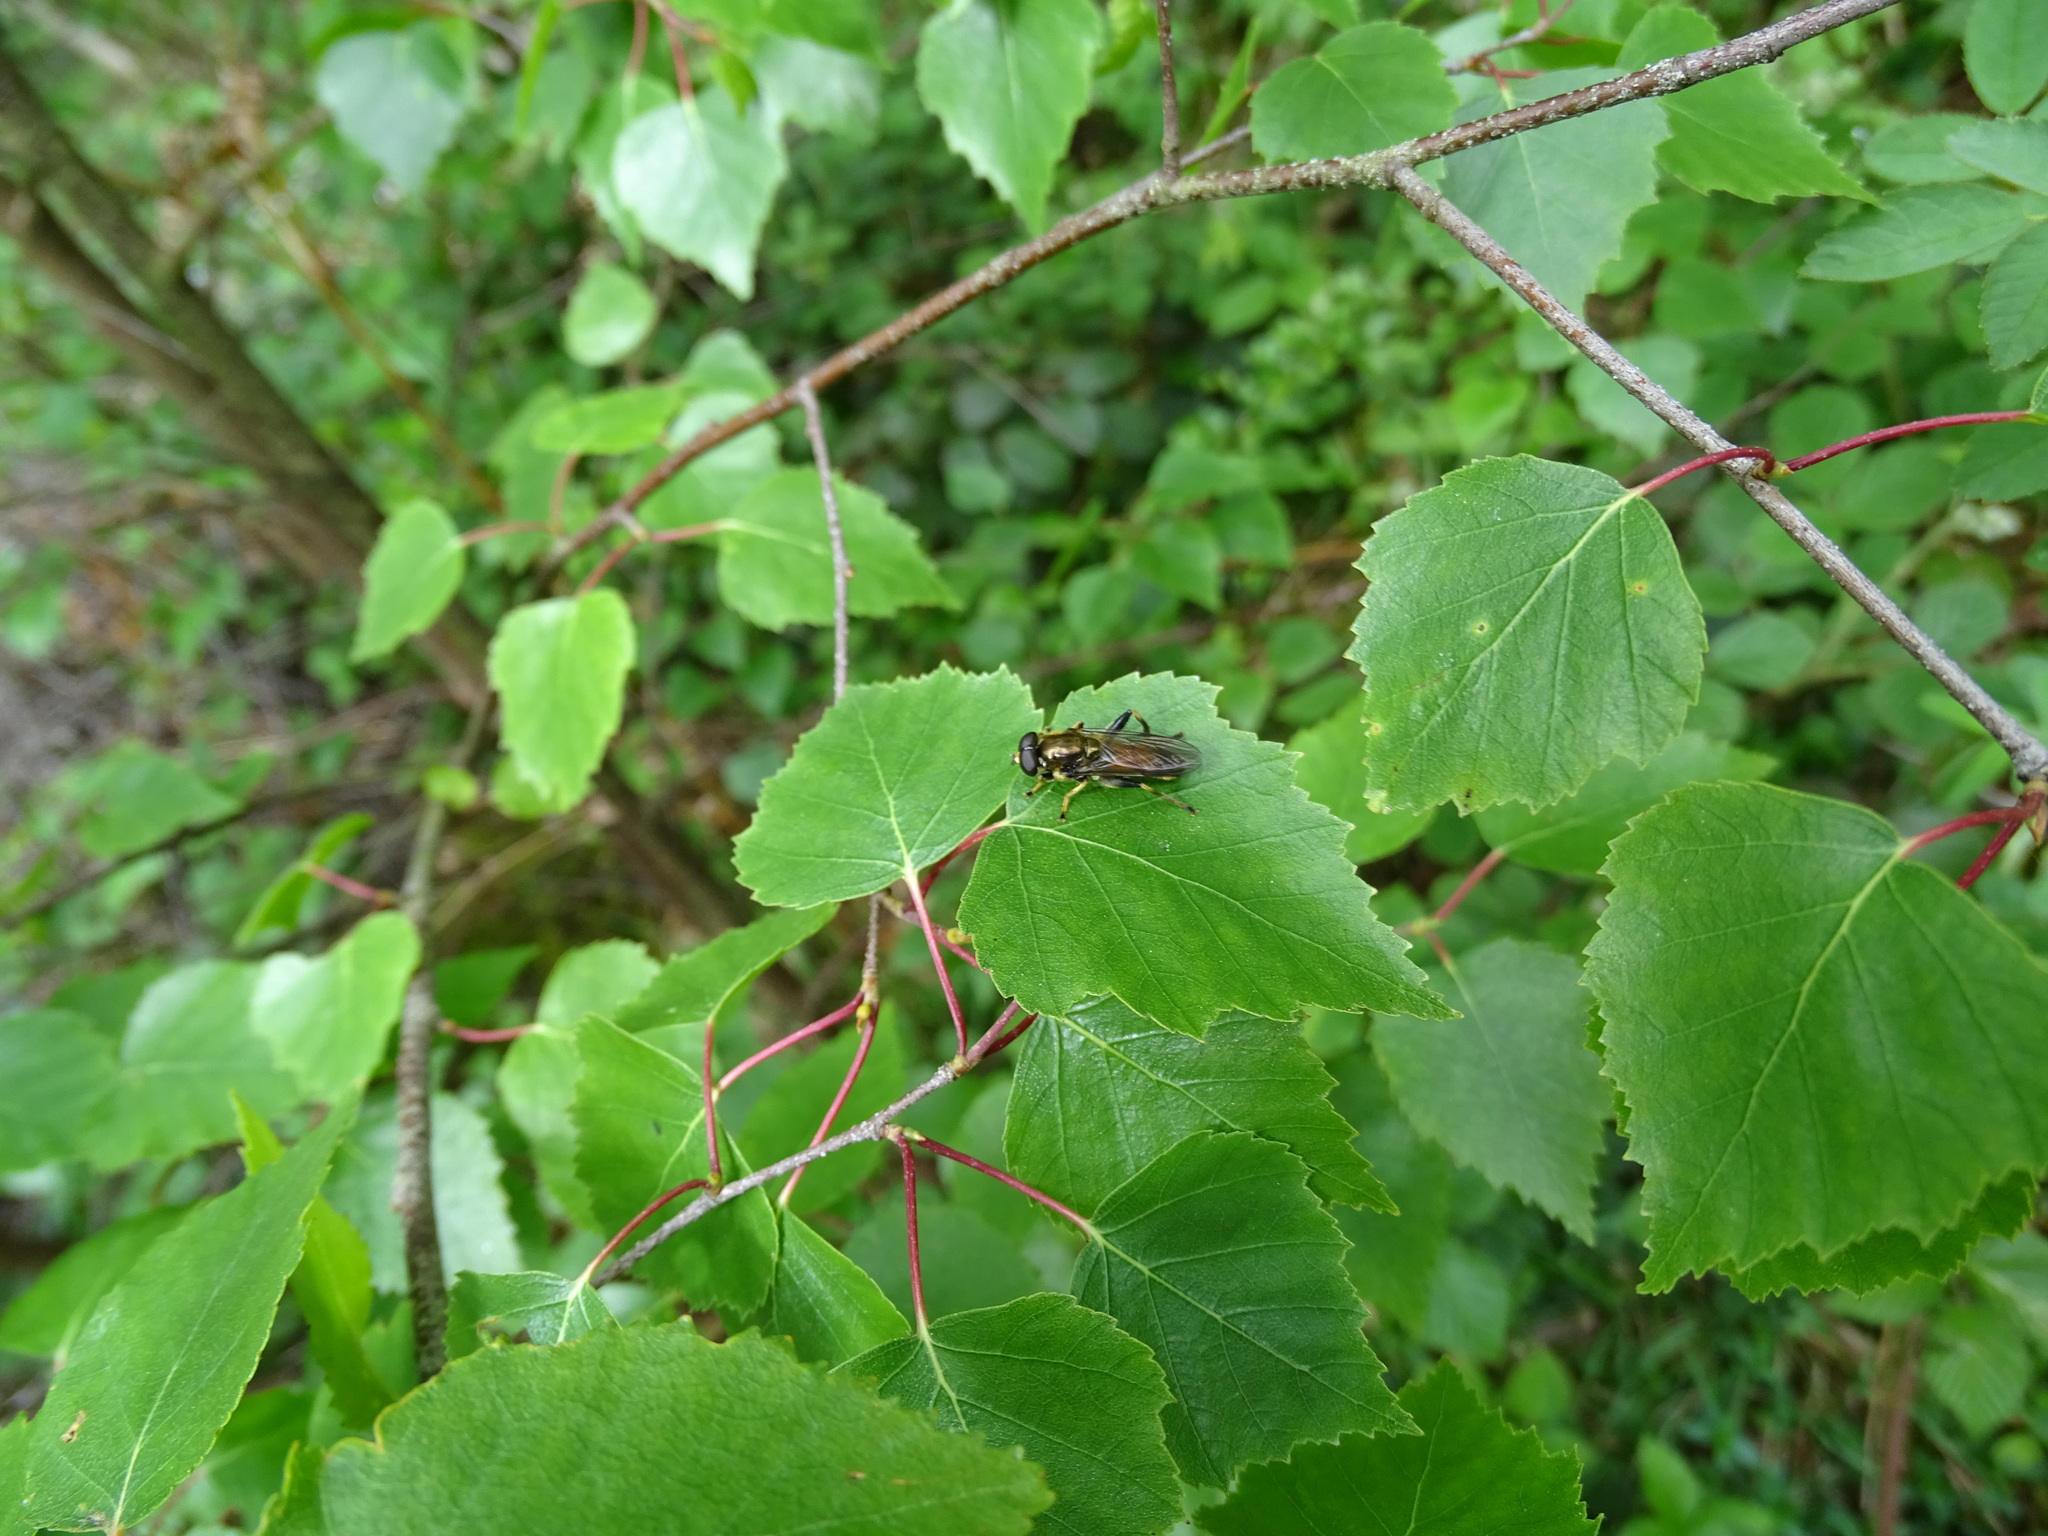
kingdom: Animalia
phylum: Arthropoda
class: Insecta
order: Diptera
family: Syrphidae
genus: Xylota
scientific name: Xylota segnis
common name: Brown-toed forest fly
